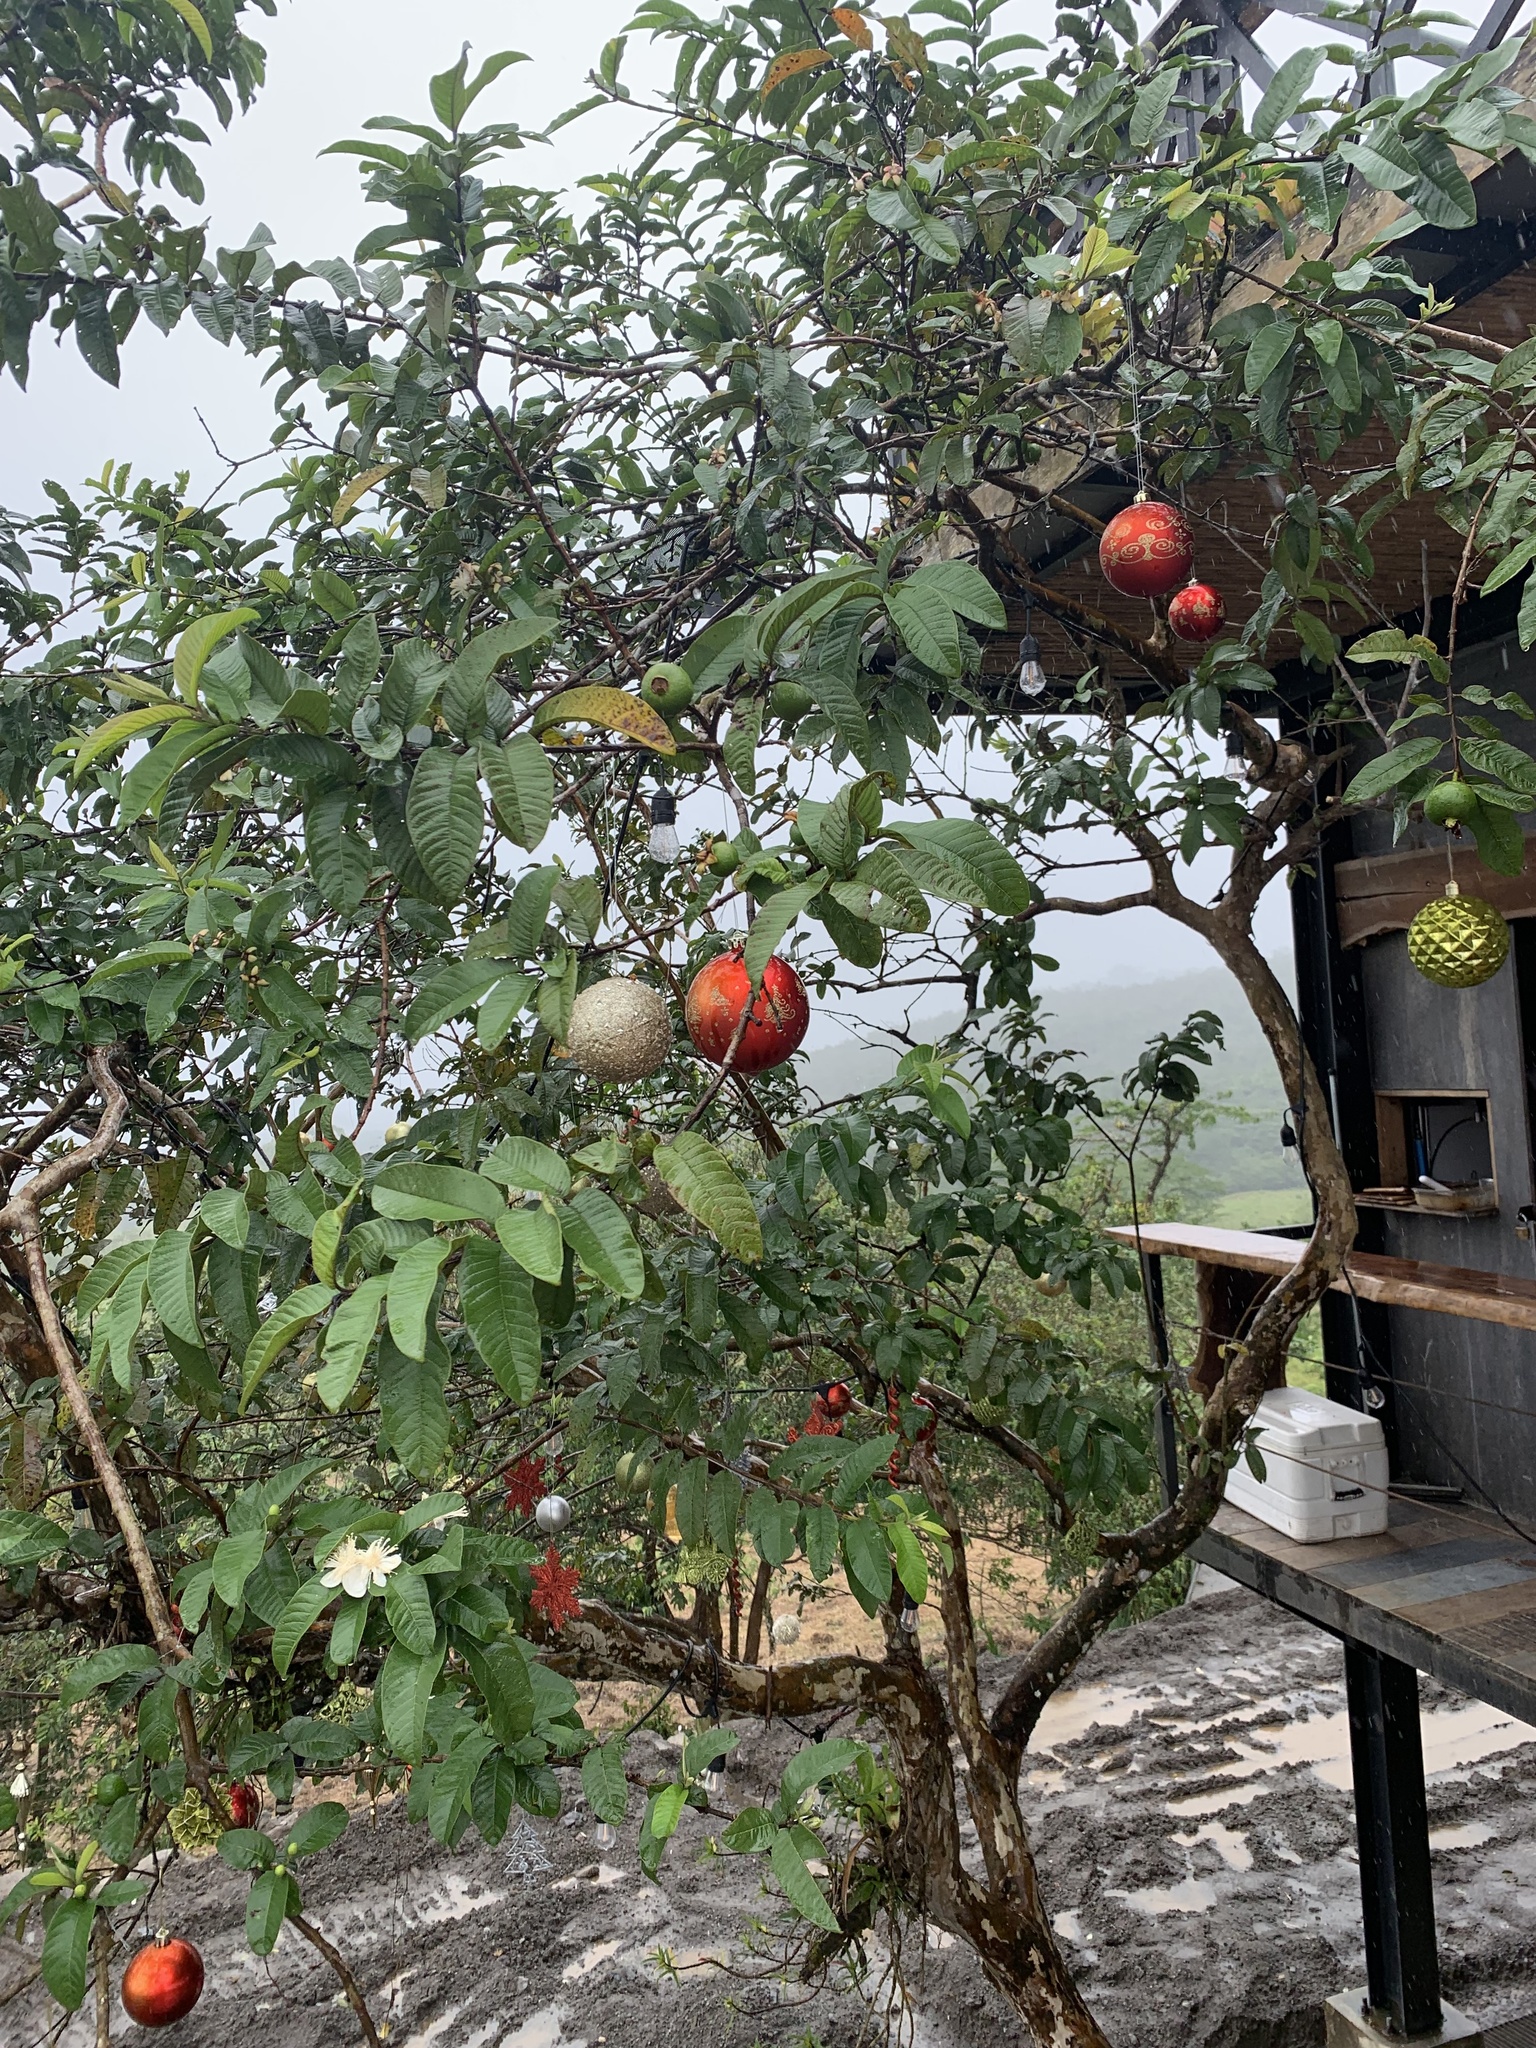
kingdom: Plantae
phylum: Tracheophyta
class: Magnoliopsida
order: Myrtales
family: Myrtaceae
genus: Psidium
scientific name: Psidium guajava
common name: Guava
